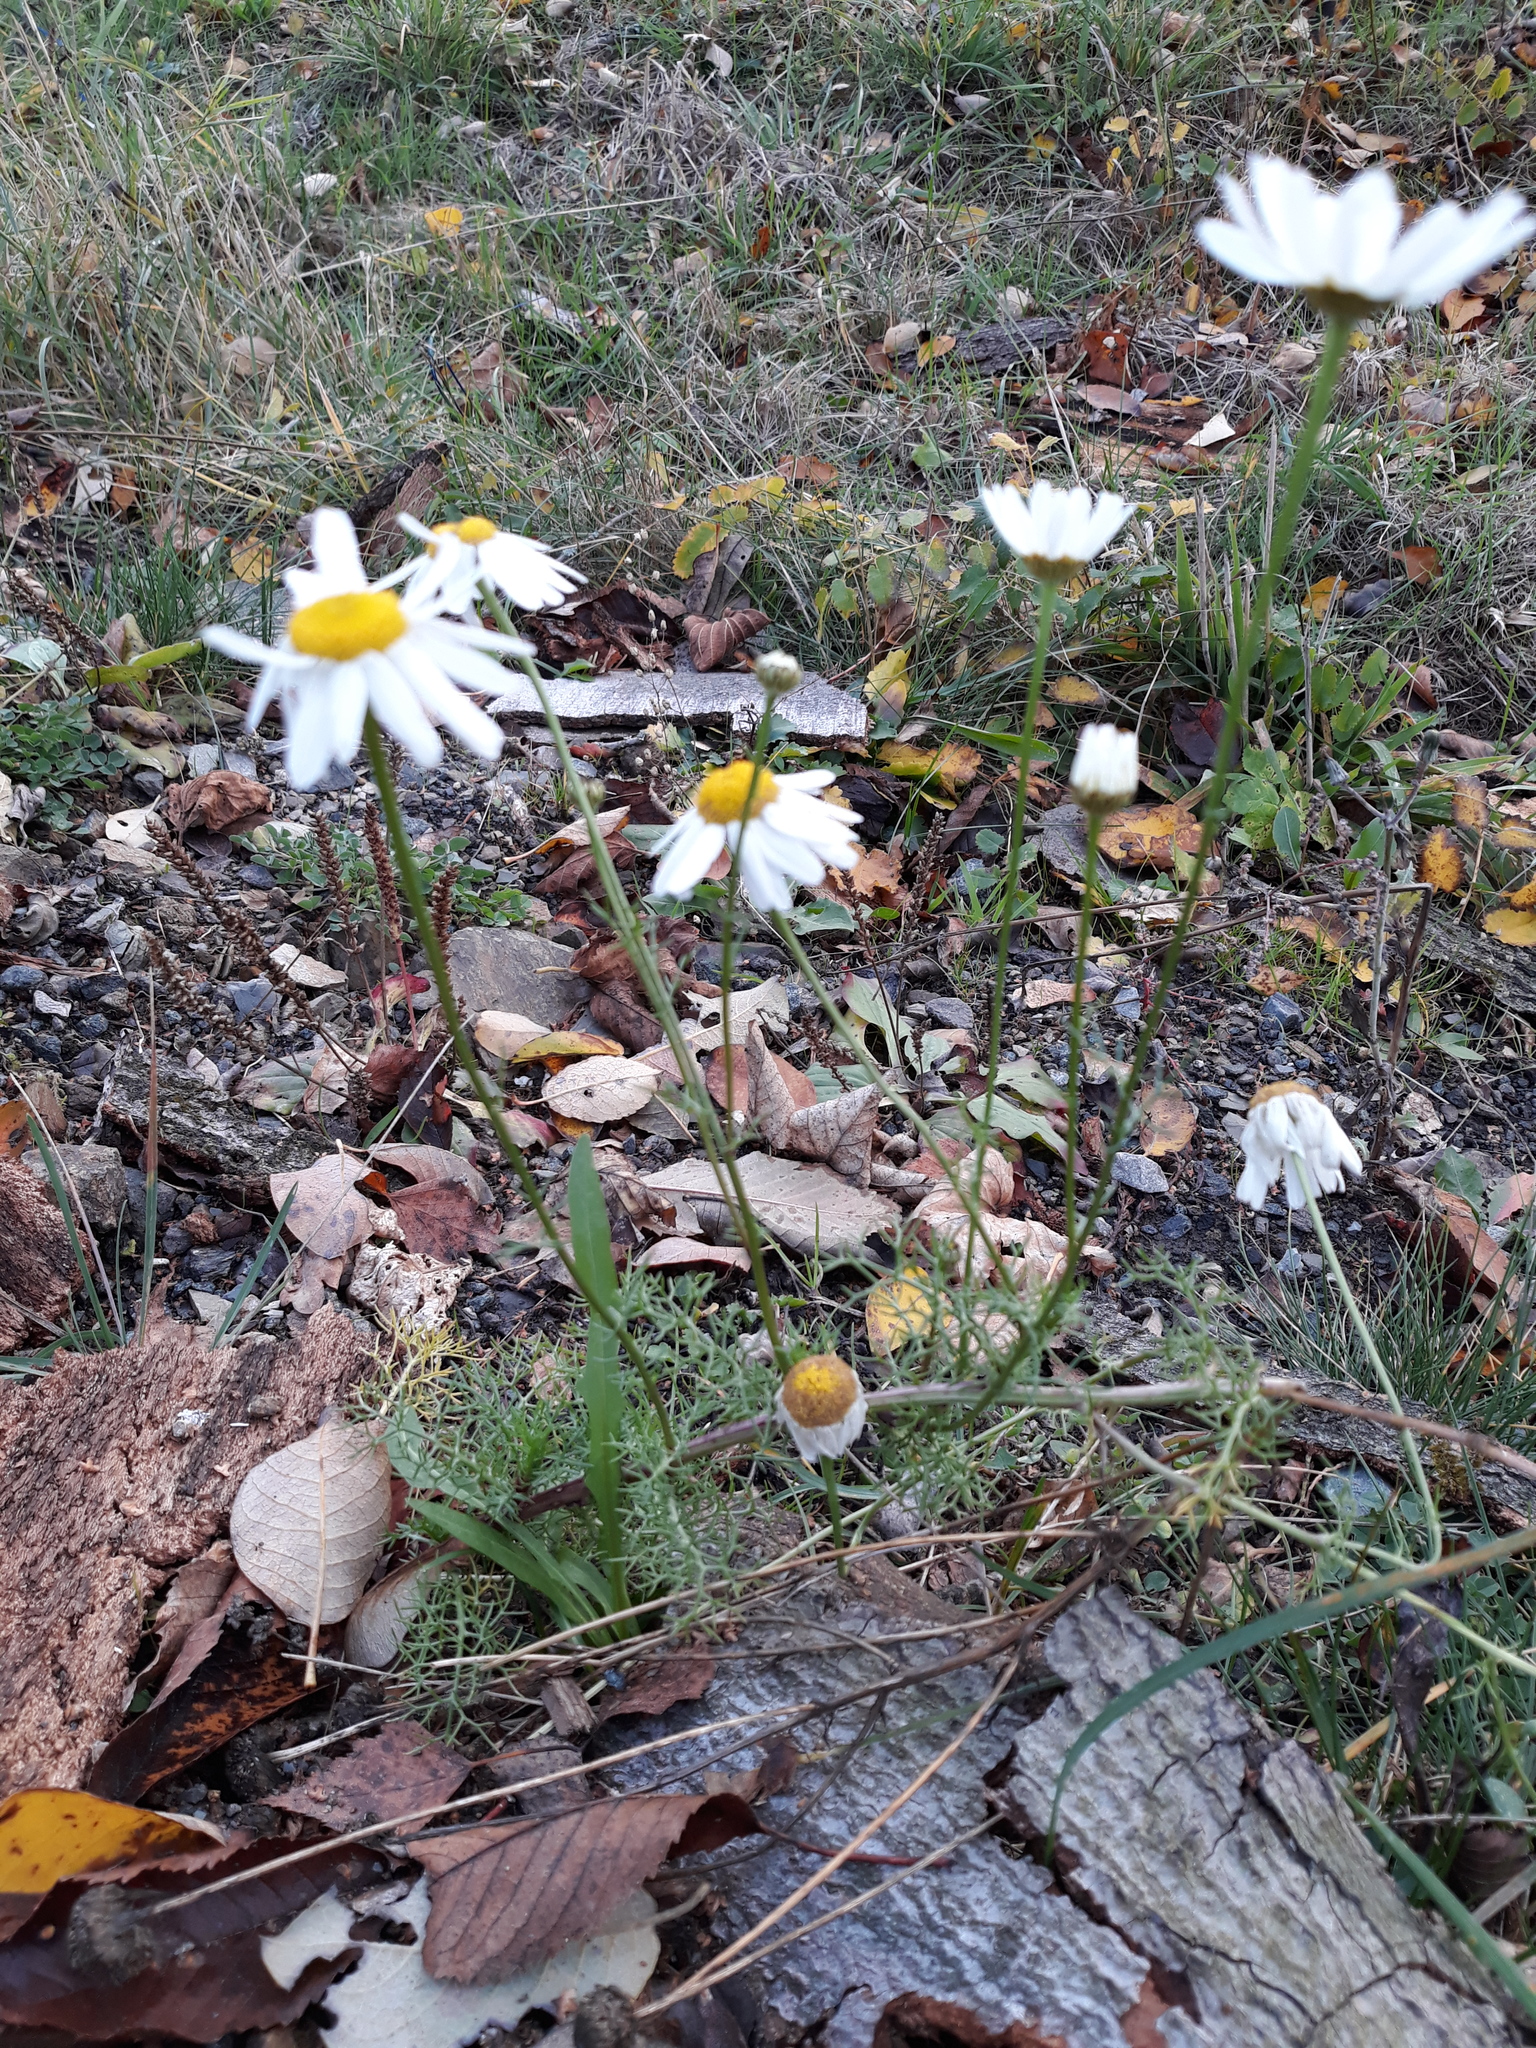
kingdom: Plantae
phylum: Tracheophyta
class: Magnoliopsida
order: Asterales
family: Asteraceae
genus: Tripleurospermum
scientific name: Tripleurospermum inodorum
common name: Scentless mayweed
